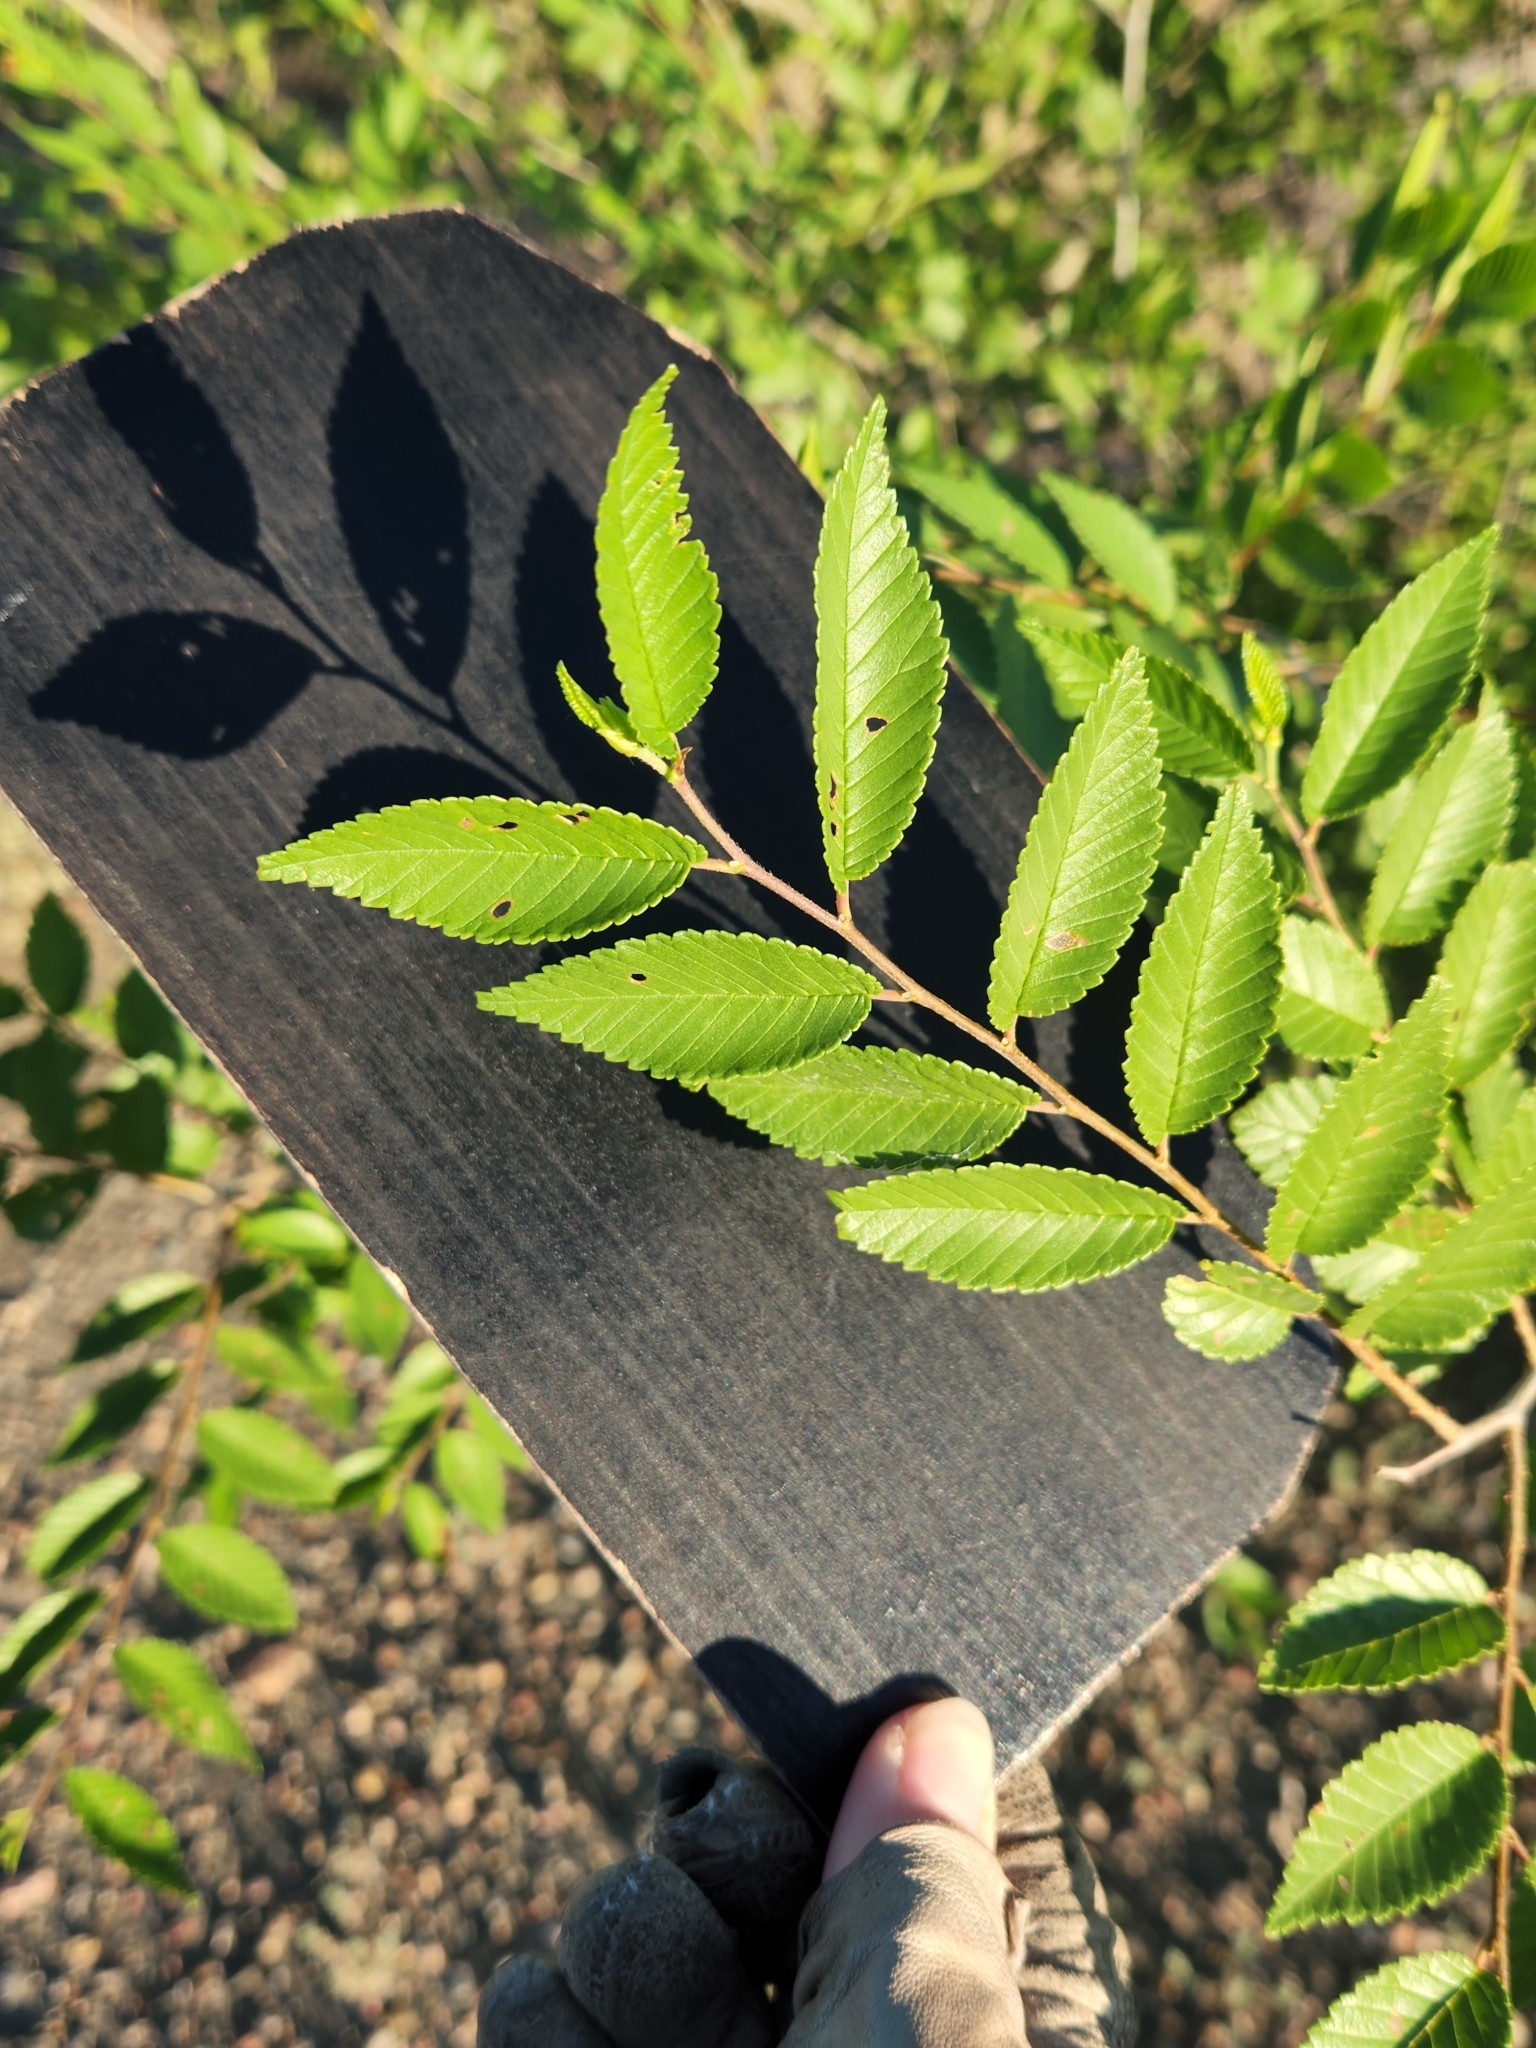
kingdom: Plantae
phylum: Tracheophyta
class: Magnoliopsida
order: Rosales
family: Ulmaceae
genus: Ulmus
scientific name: Ulmus pumila
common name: Siberian elm
